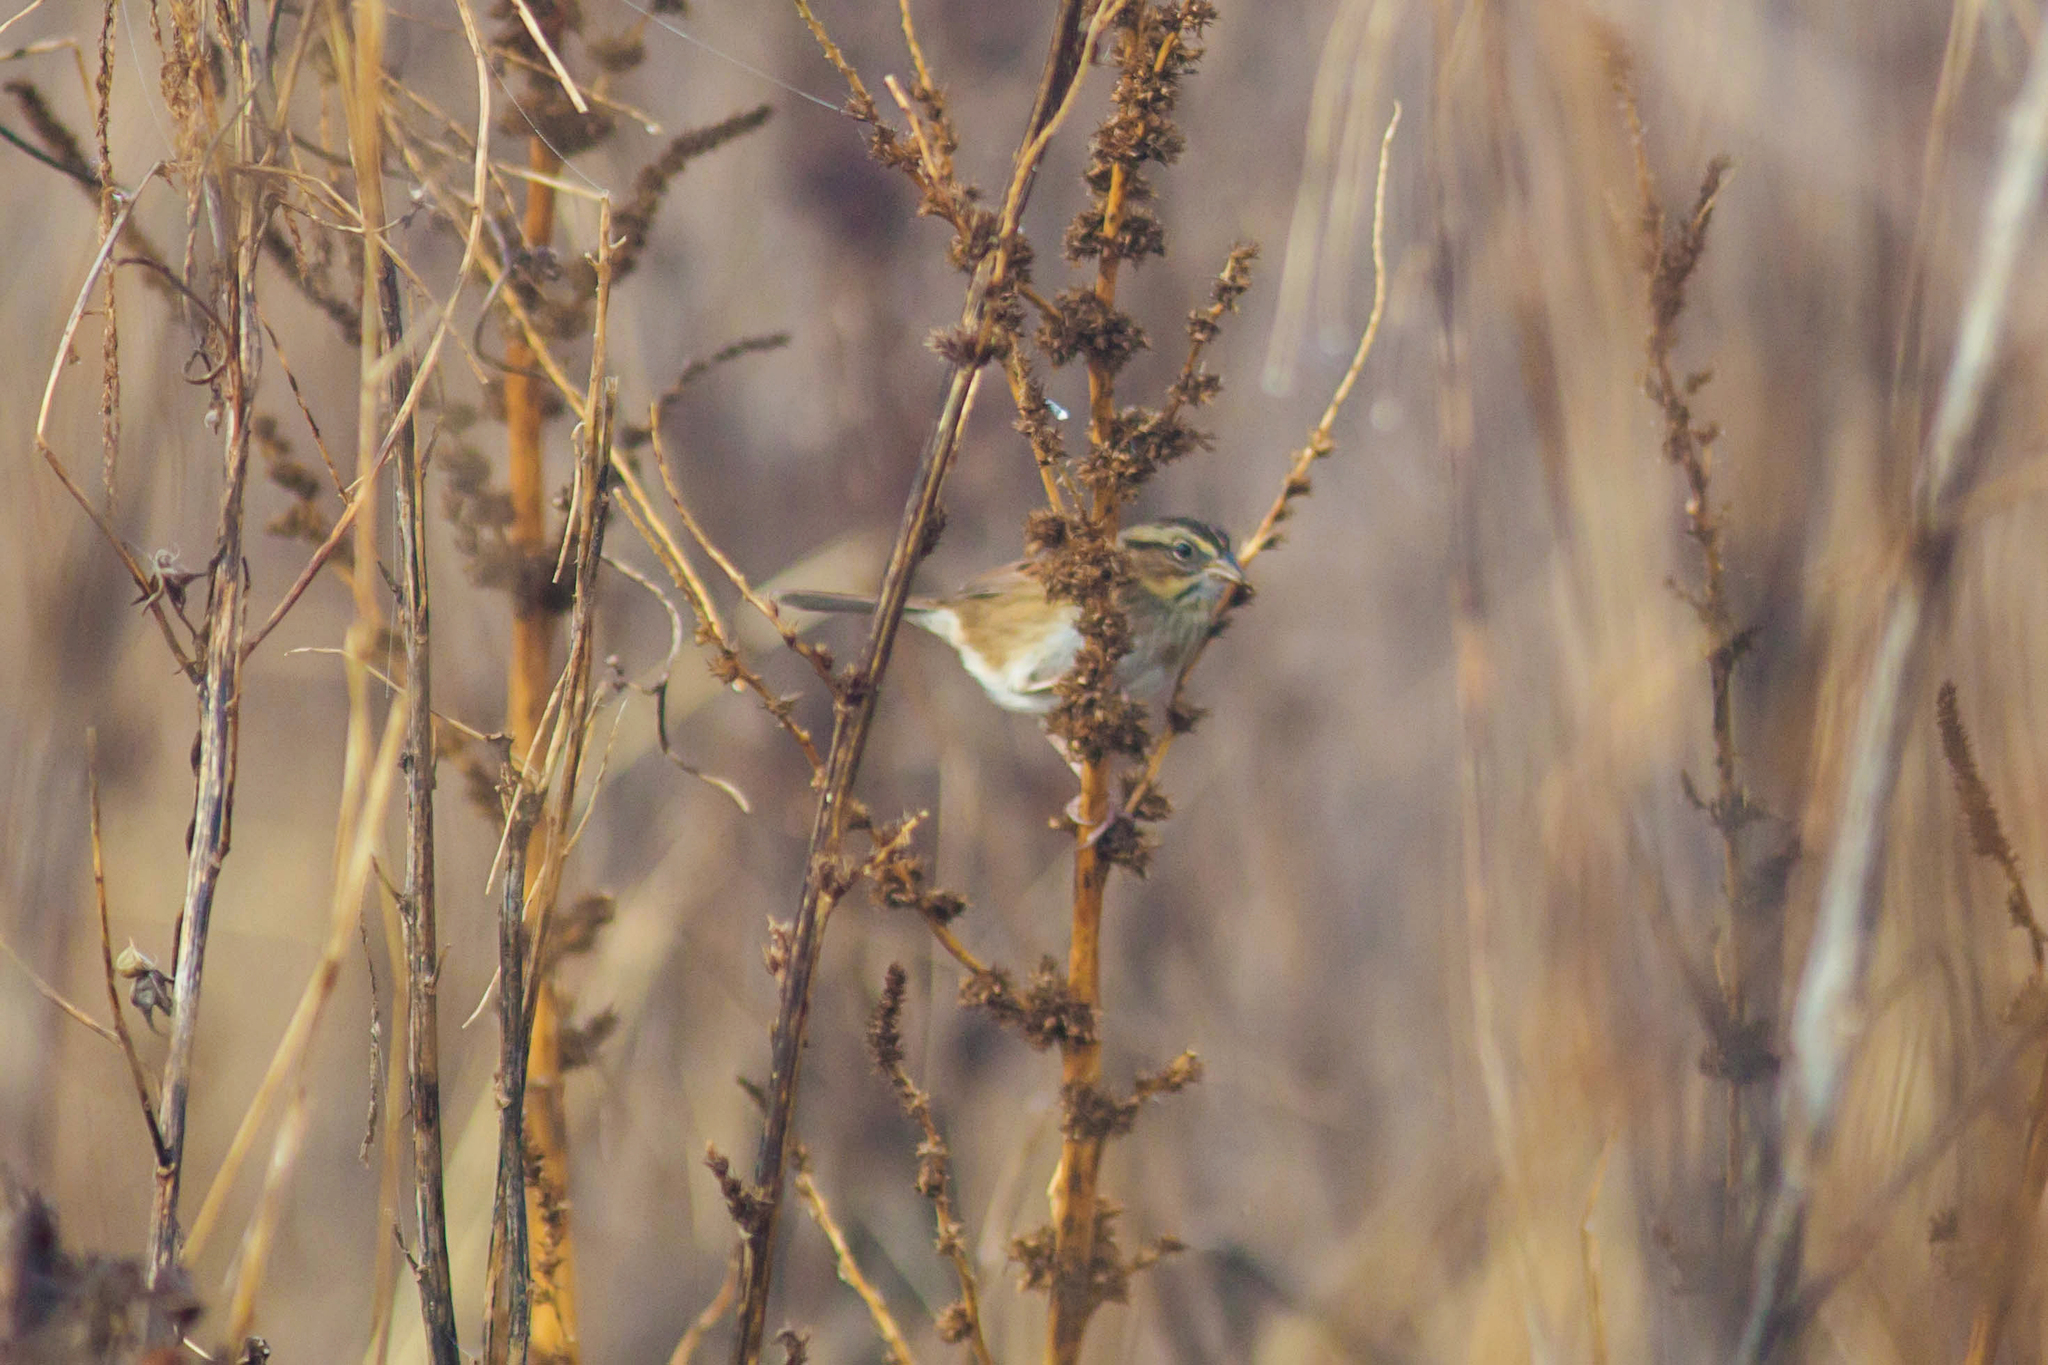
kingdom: Animalia
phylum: Chordata
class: Aves
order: Passeriformes
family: Passerellidae
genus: Melospiza
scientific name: Melospiza georgiana
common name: Swamp sparrow
